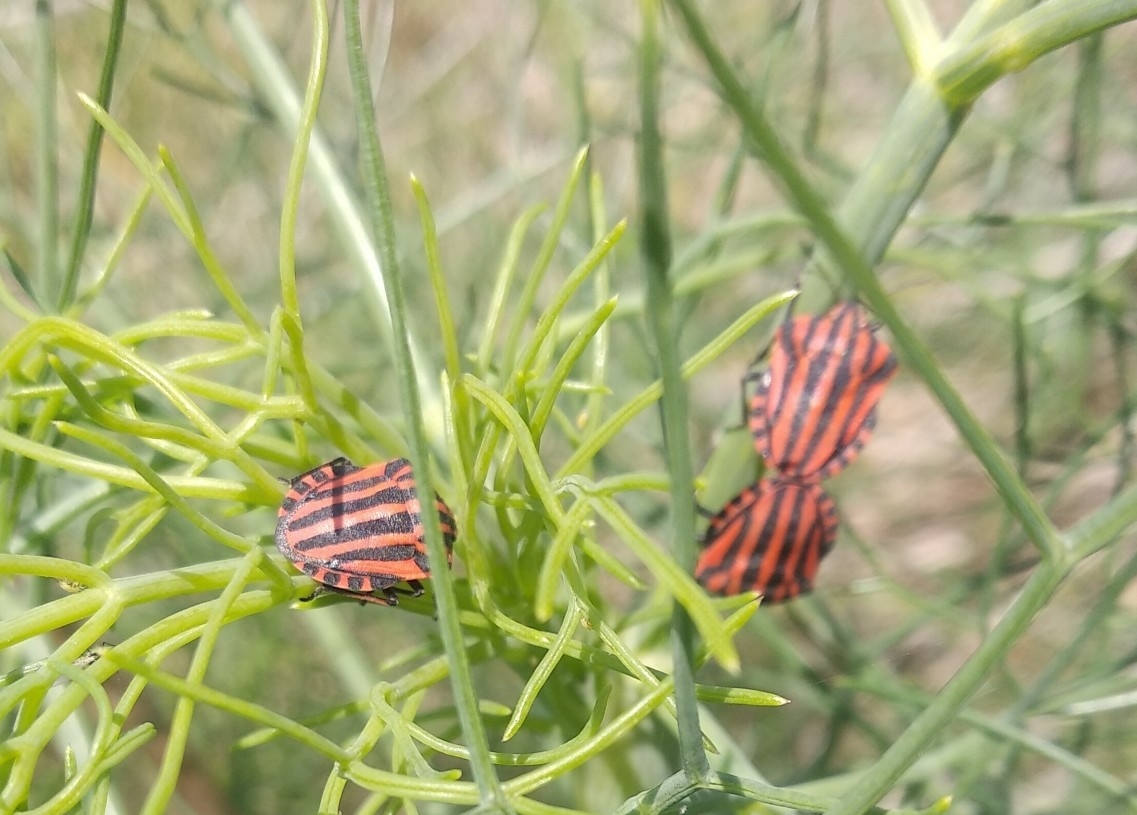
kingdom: Animalia
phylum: Arthropoda
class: Insecta
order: Hemiptera
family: Pentatomidae
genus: Graphosoma
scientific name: Graphosoma italicum
